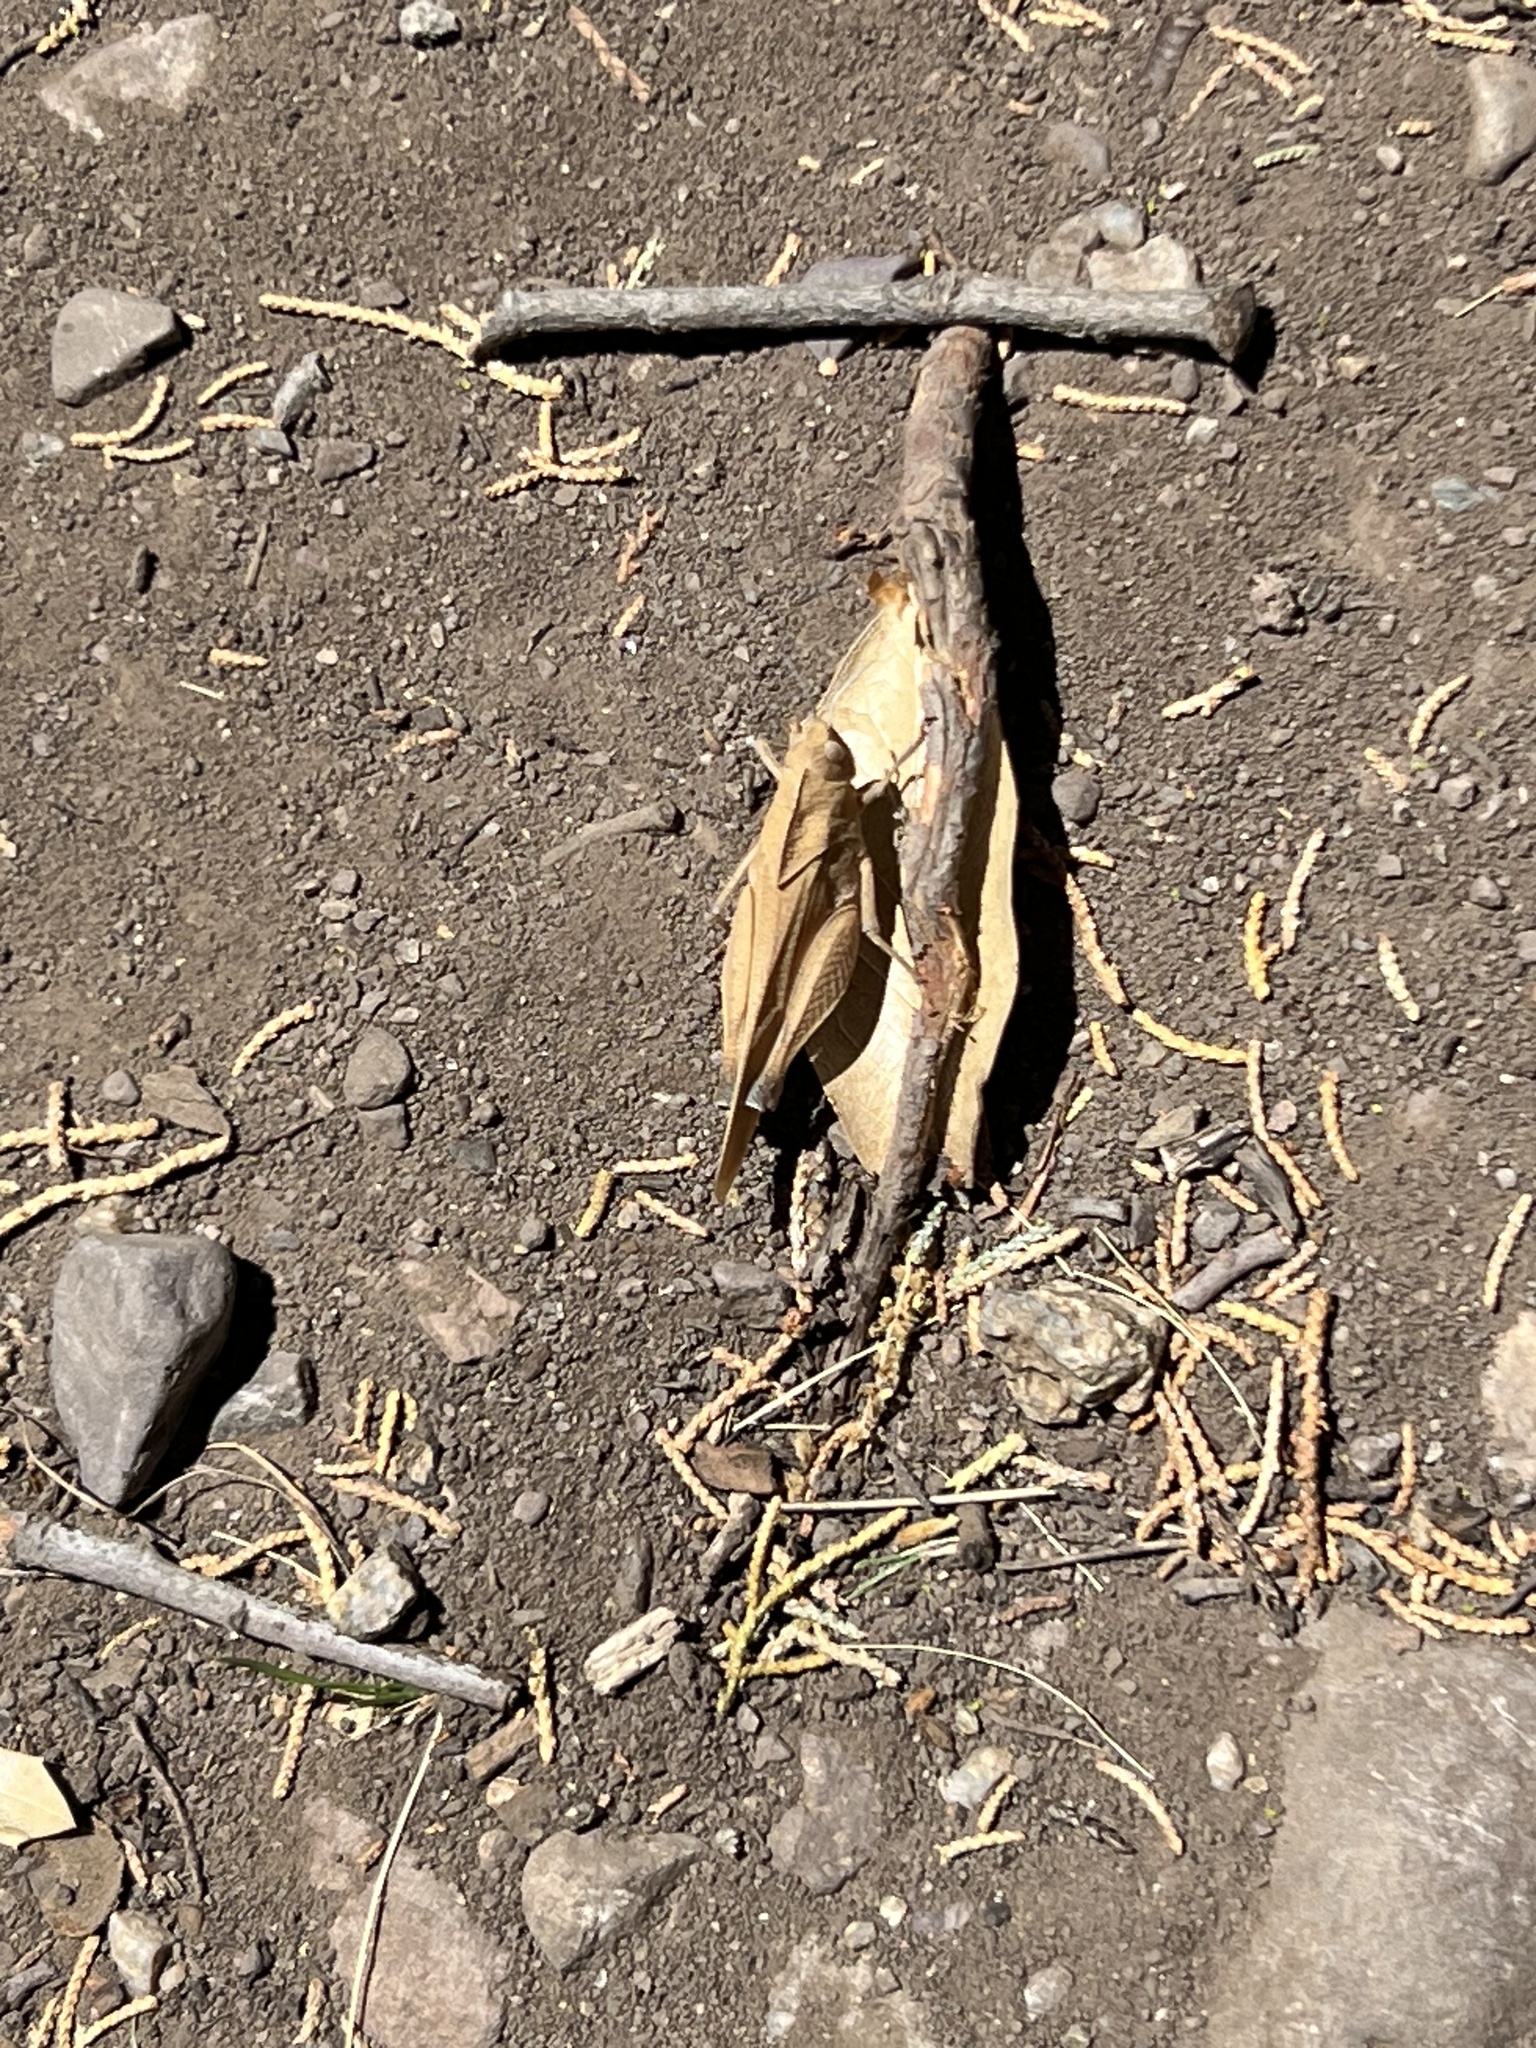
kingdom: Animalia
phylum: Arthropoda
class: Insecta
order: Orthoptera
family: Acrididae
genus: Tomonotus
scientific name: Tomonotus ferruginosus
